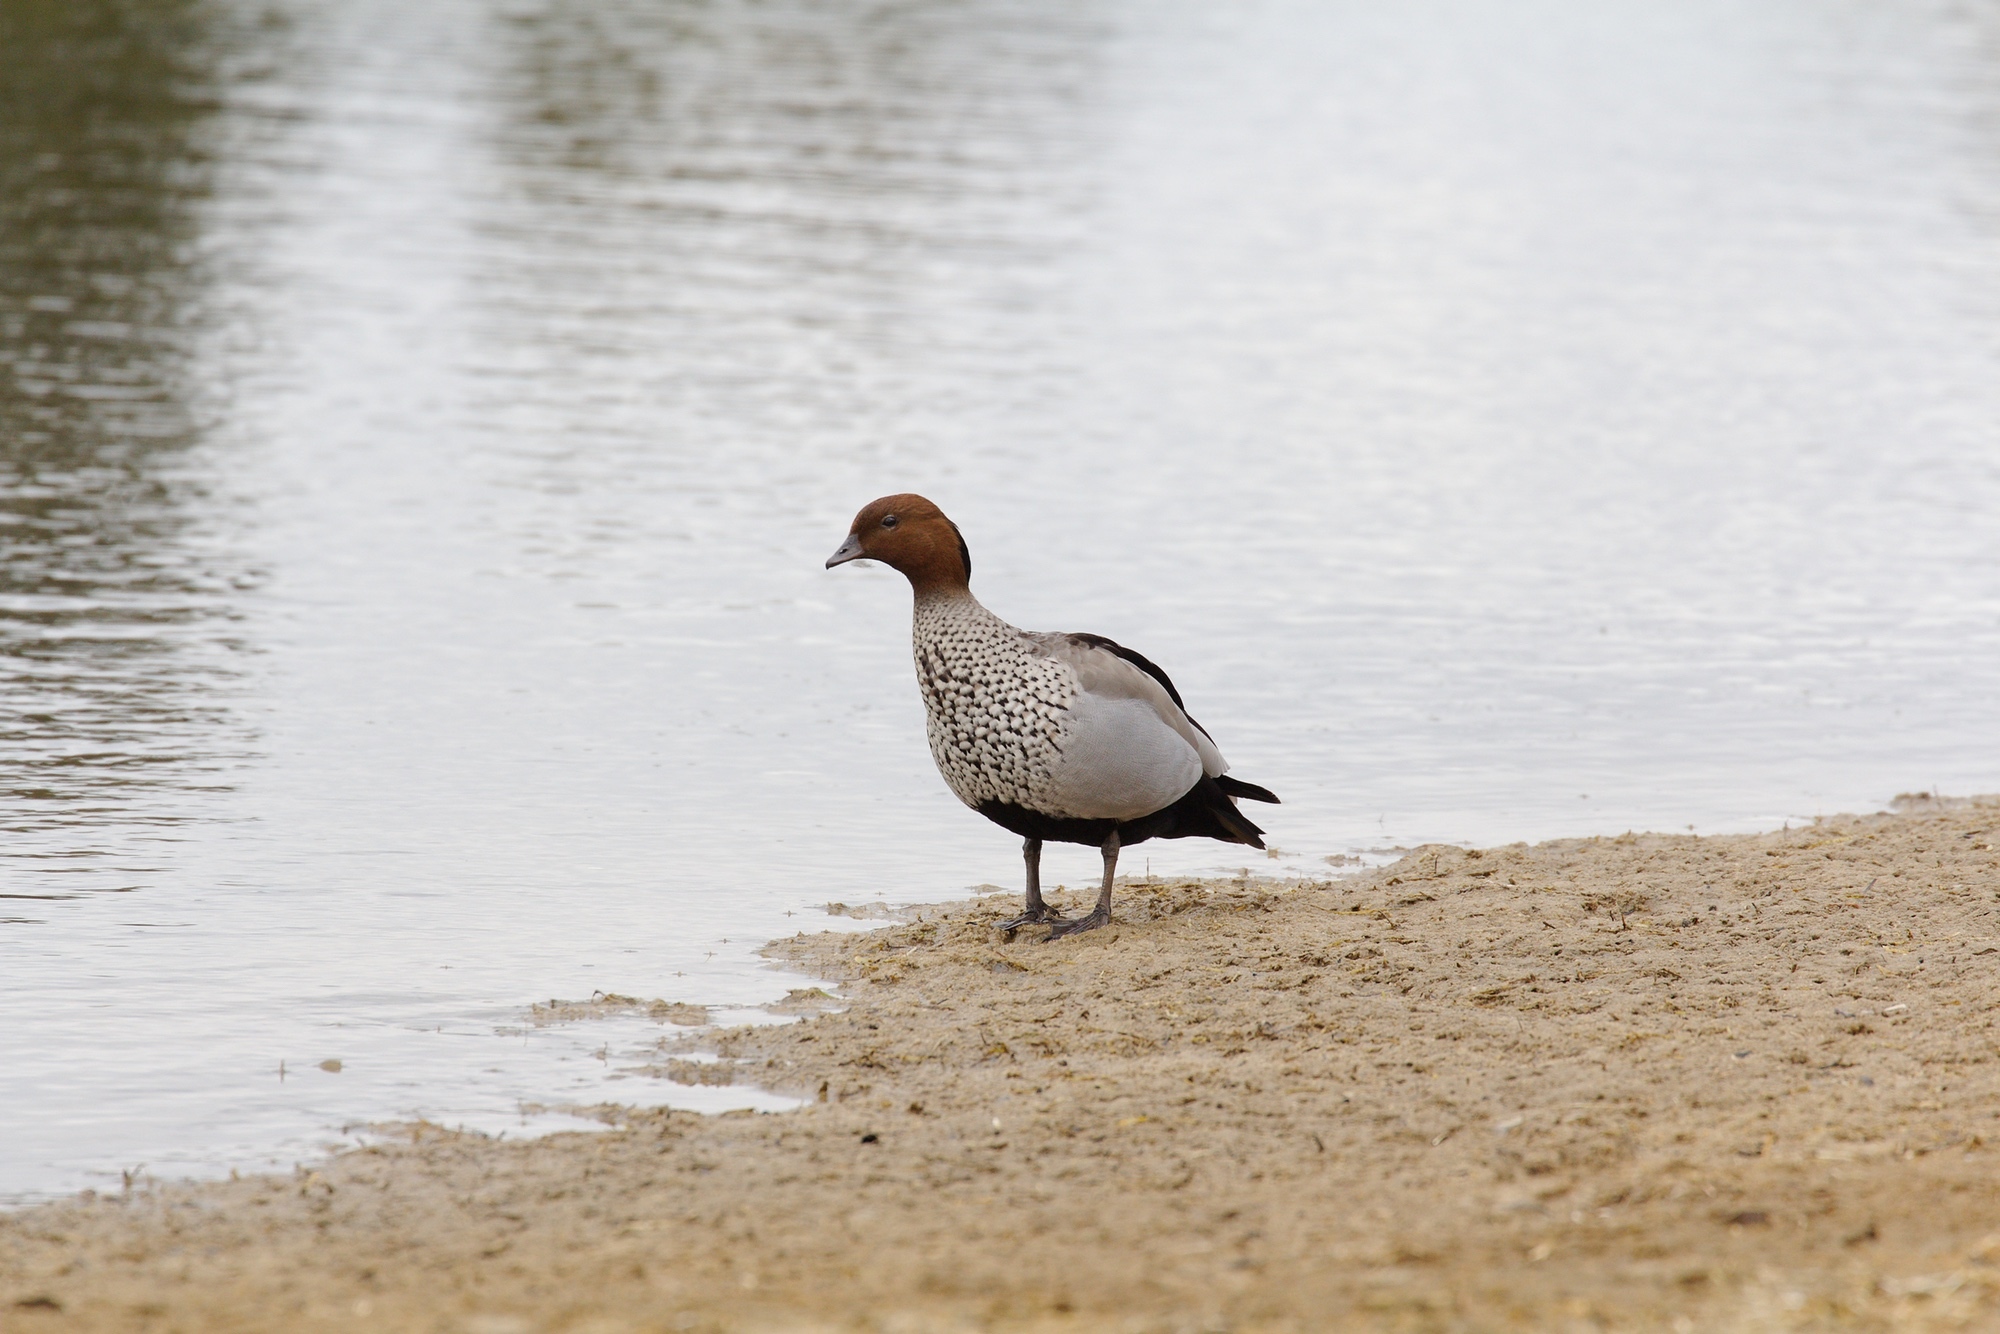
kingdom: Animalia
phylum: Chordata
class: Aves
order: Anseriformes
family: Anatidae
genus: Chenonetta
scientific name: Chenonetta jubata
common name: Maned duck
